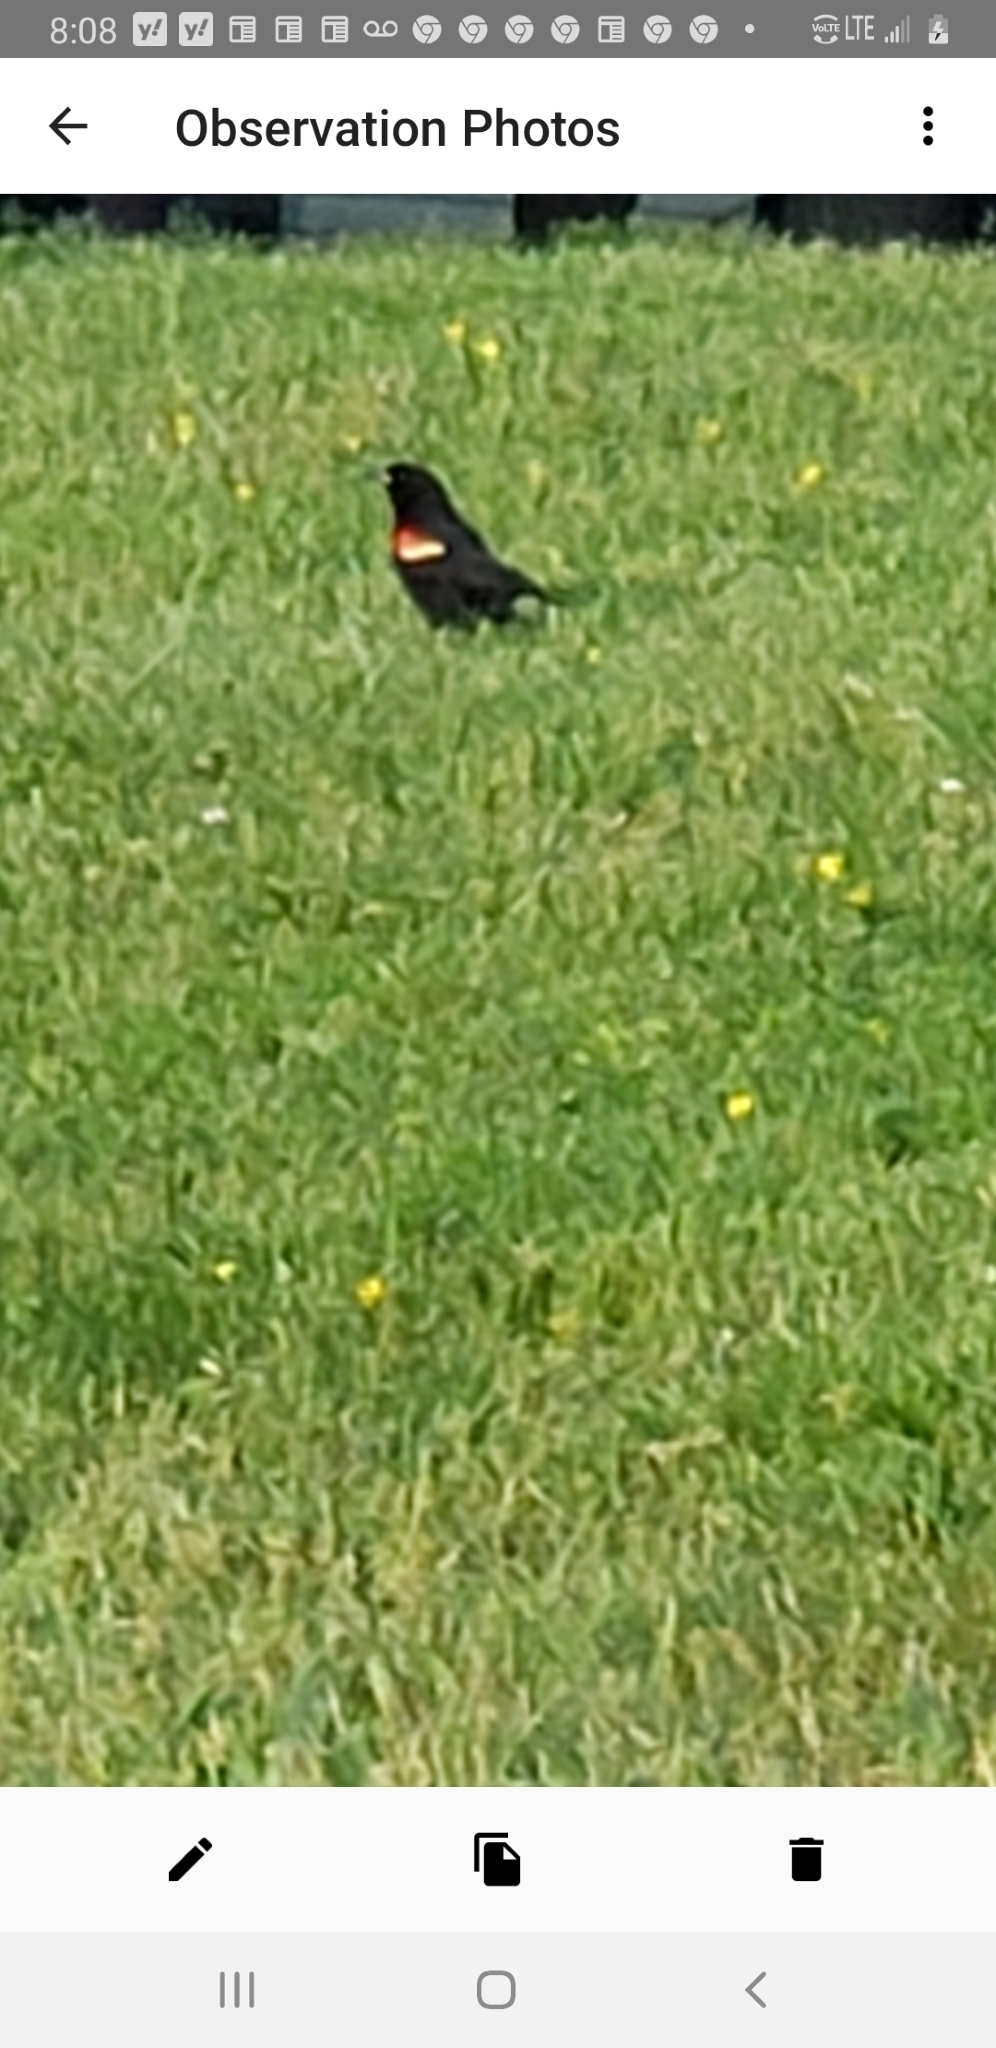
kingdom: Animalia
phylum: Chordata
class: Aves
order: Passeriformes
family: Icteridae
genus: Agelaius
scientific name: Agelaius phoeniceus
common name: Red-winged blackbird
